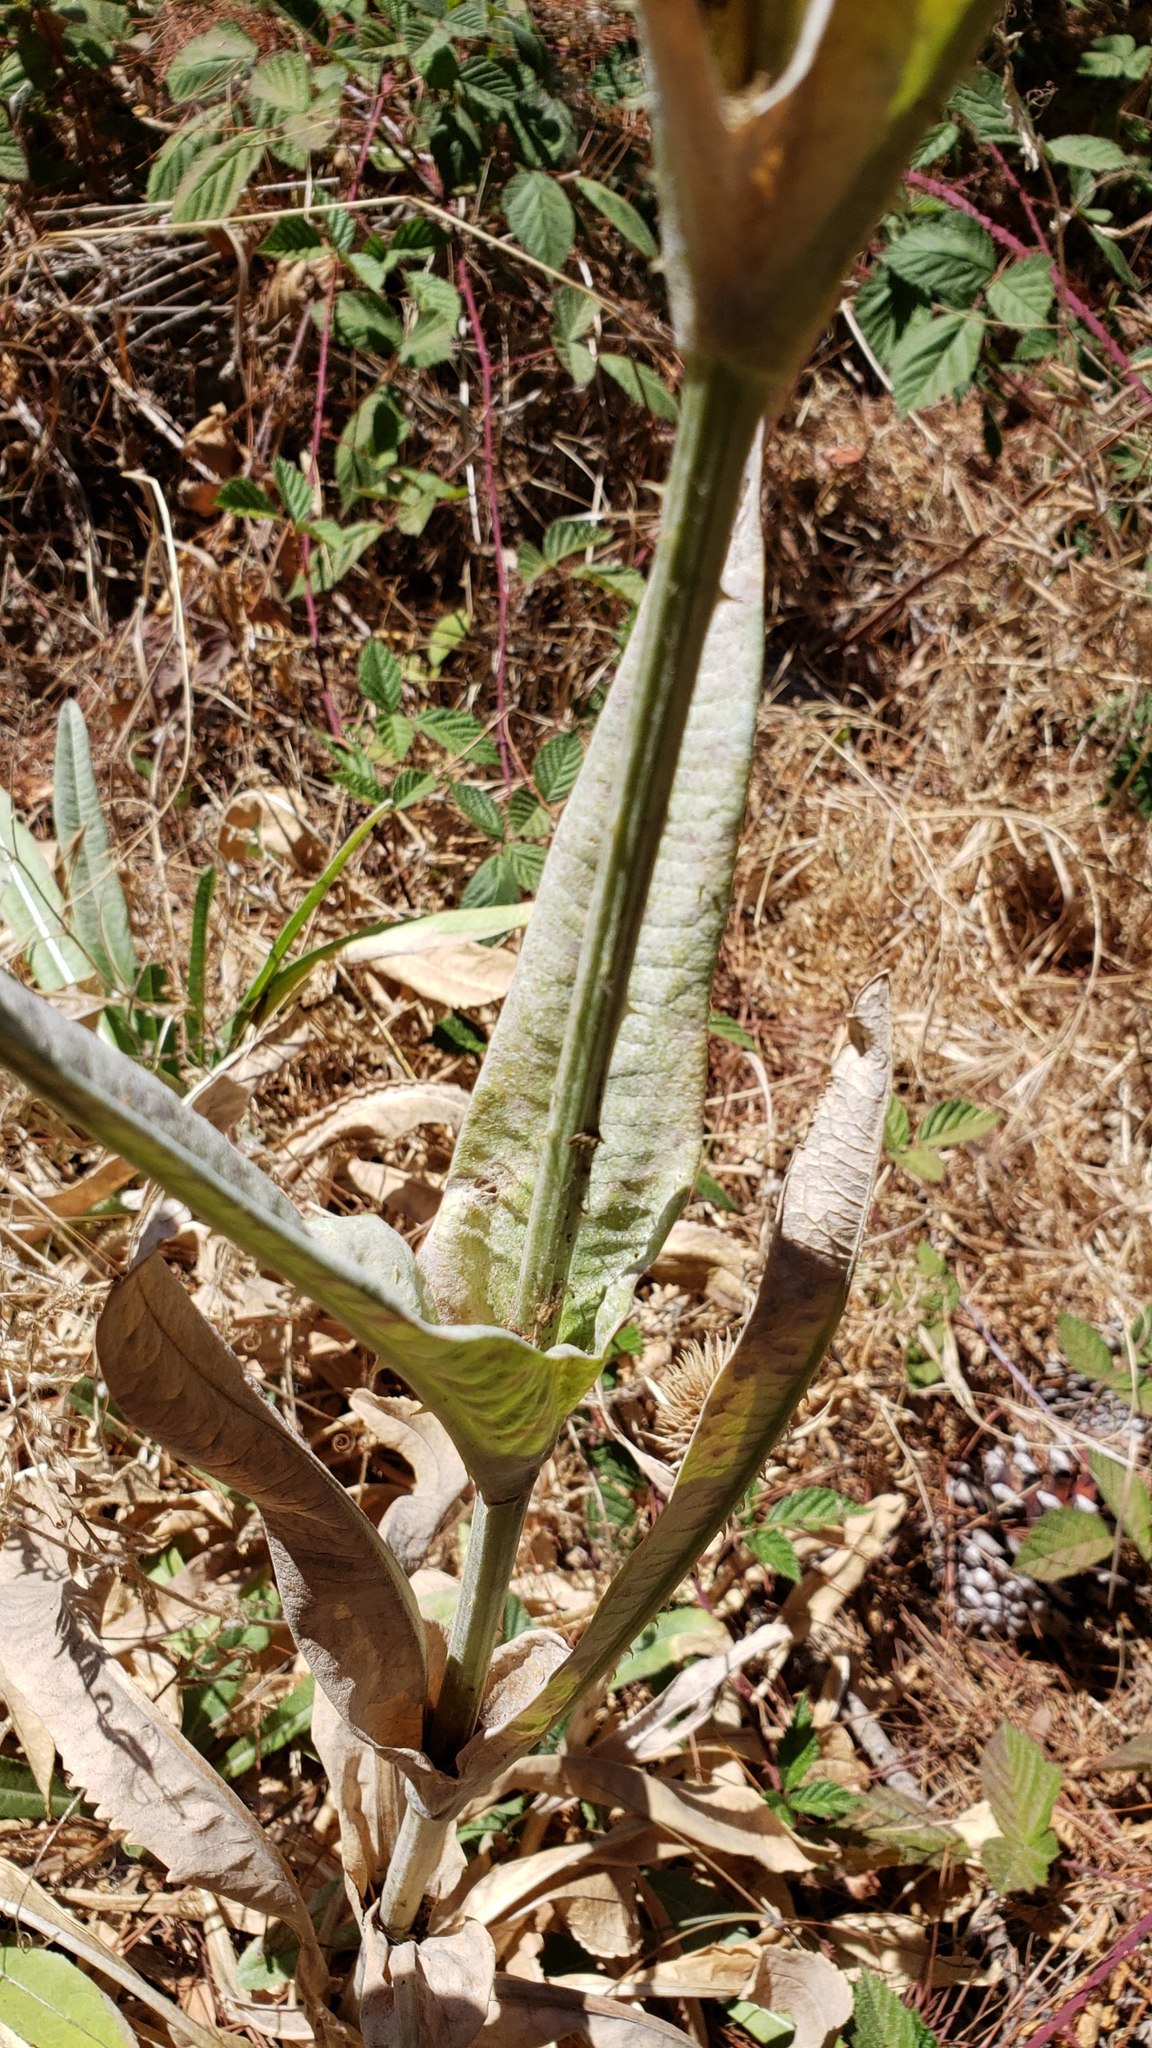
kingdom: Plantae
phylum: Tracheophyta
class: Magnoliopsida
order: Dipsacales
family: Caprifoliaceae
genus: Dipsacus
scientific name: Dipsacus sativus
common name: Fuller's teasel
